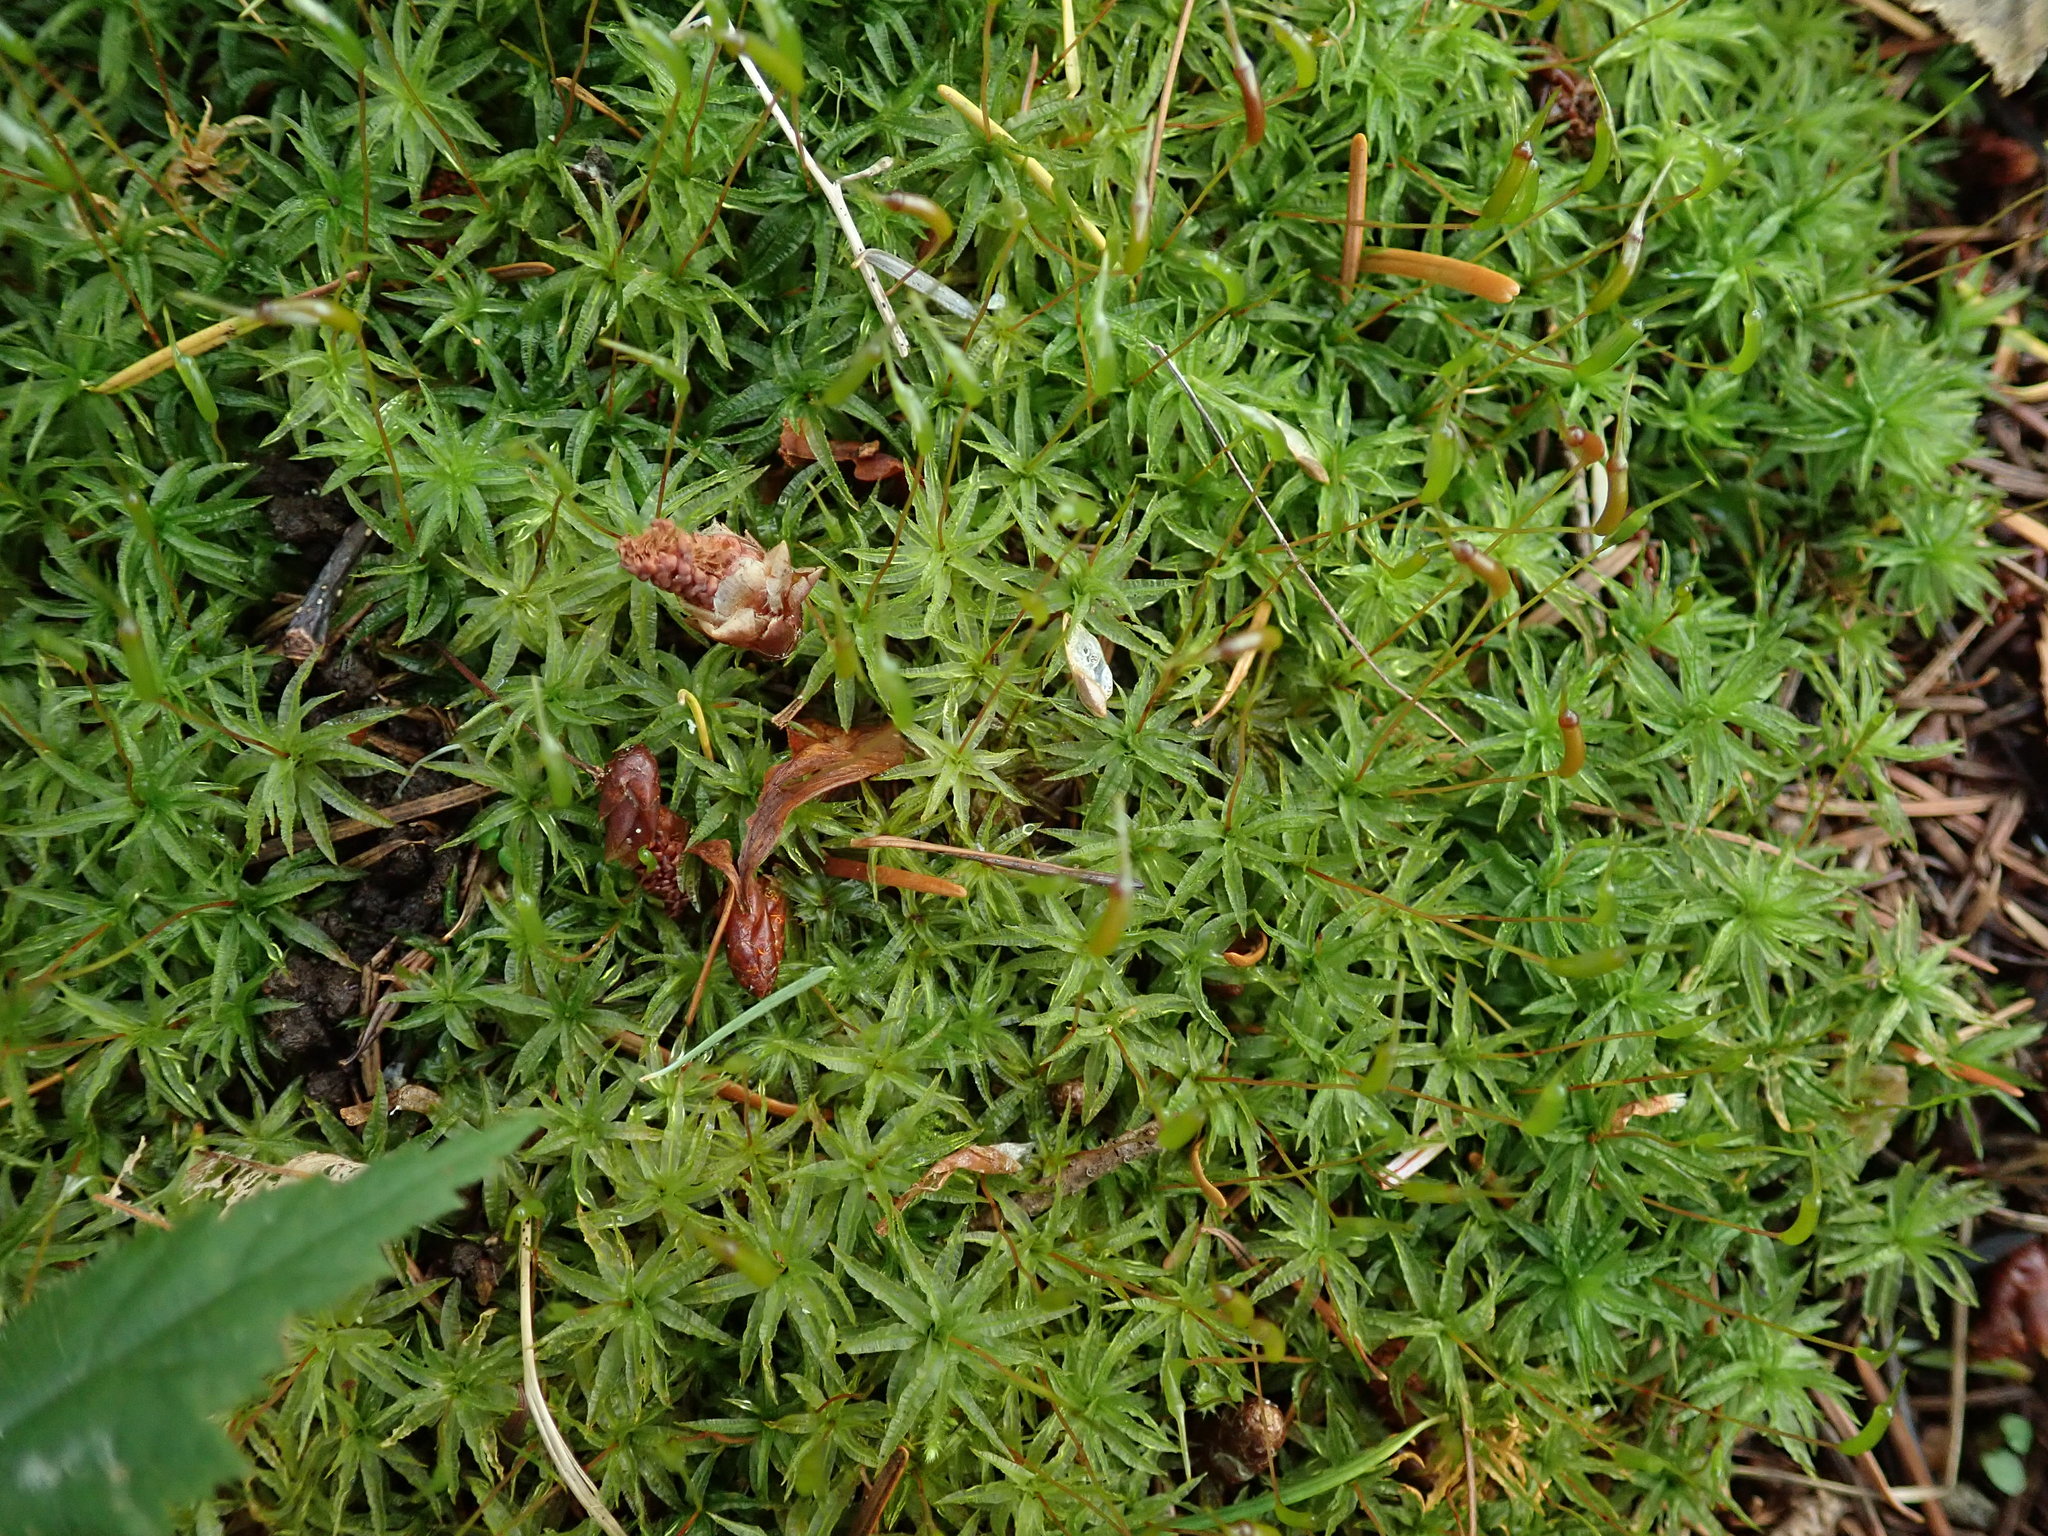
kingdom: Plantae
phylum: Bryophyta
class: Polytrichopsida
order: Polytrichales
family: Polytrichaceae
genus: Atrichum
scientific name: Atrichum undulatum
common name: Common smoothcap
